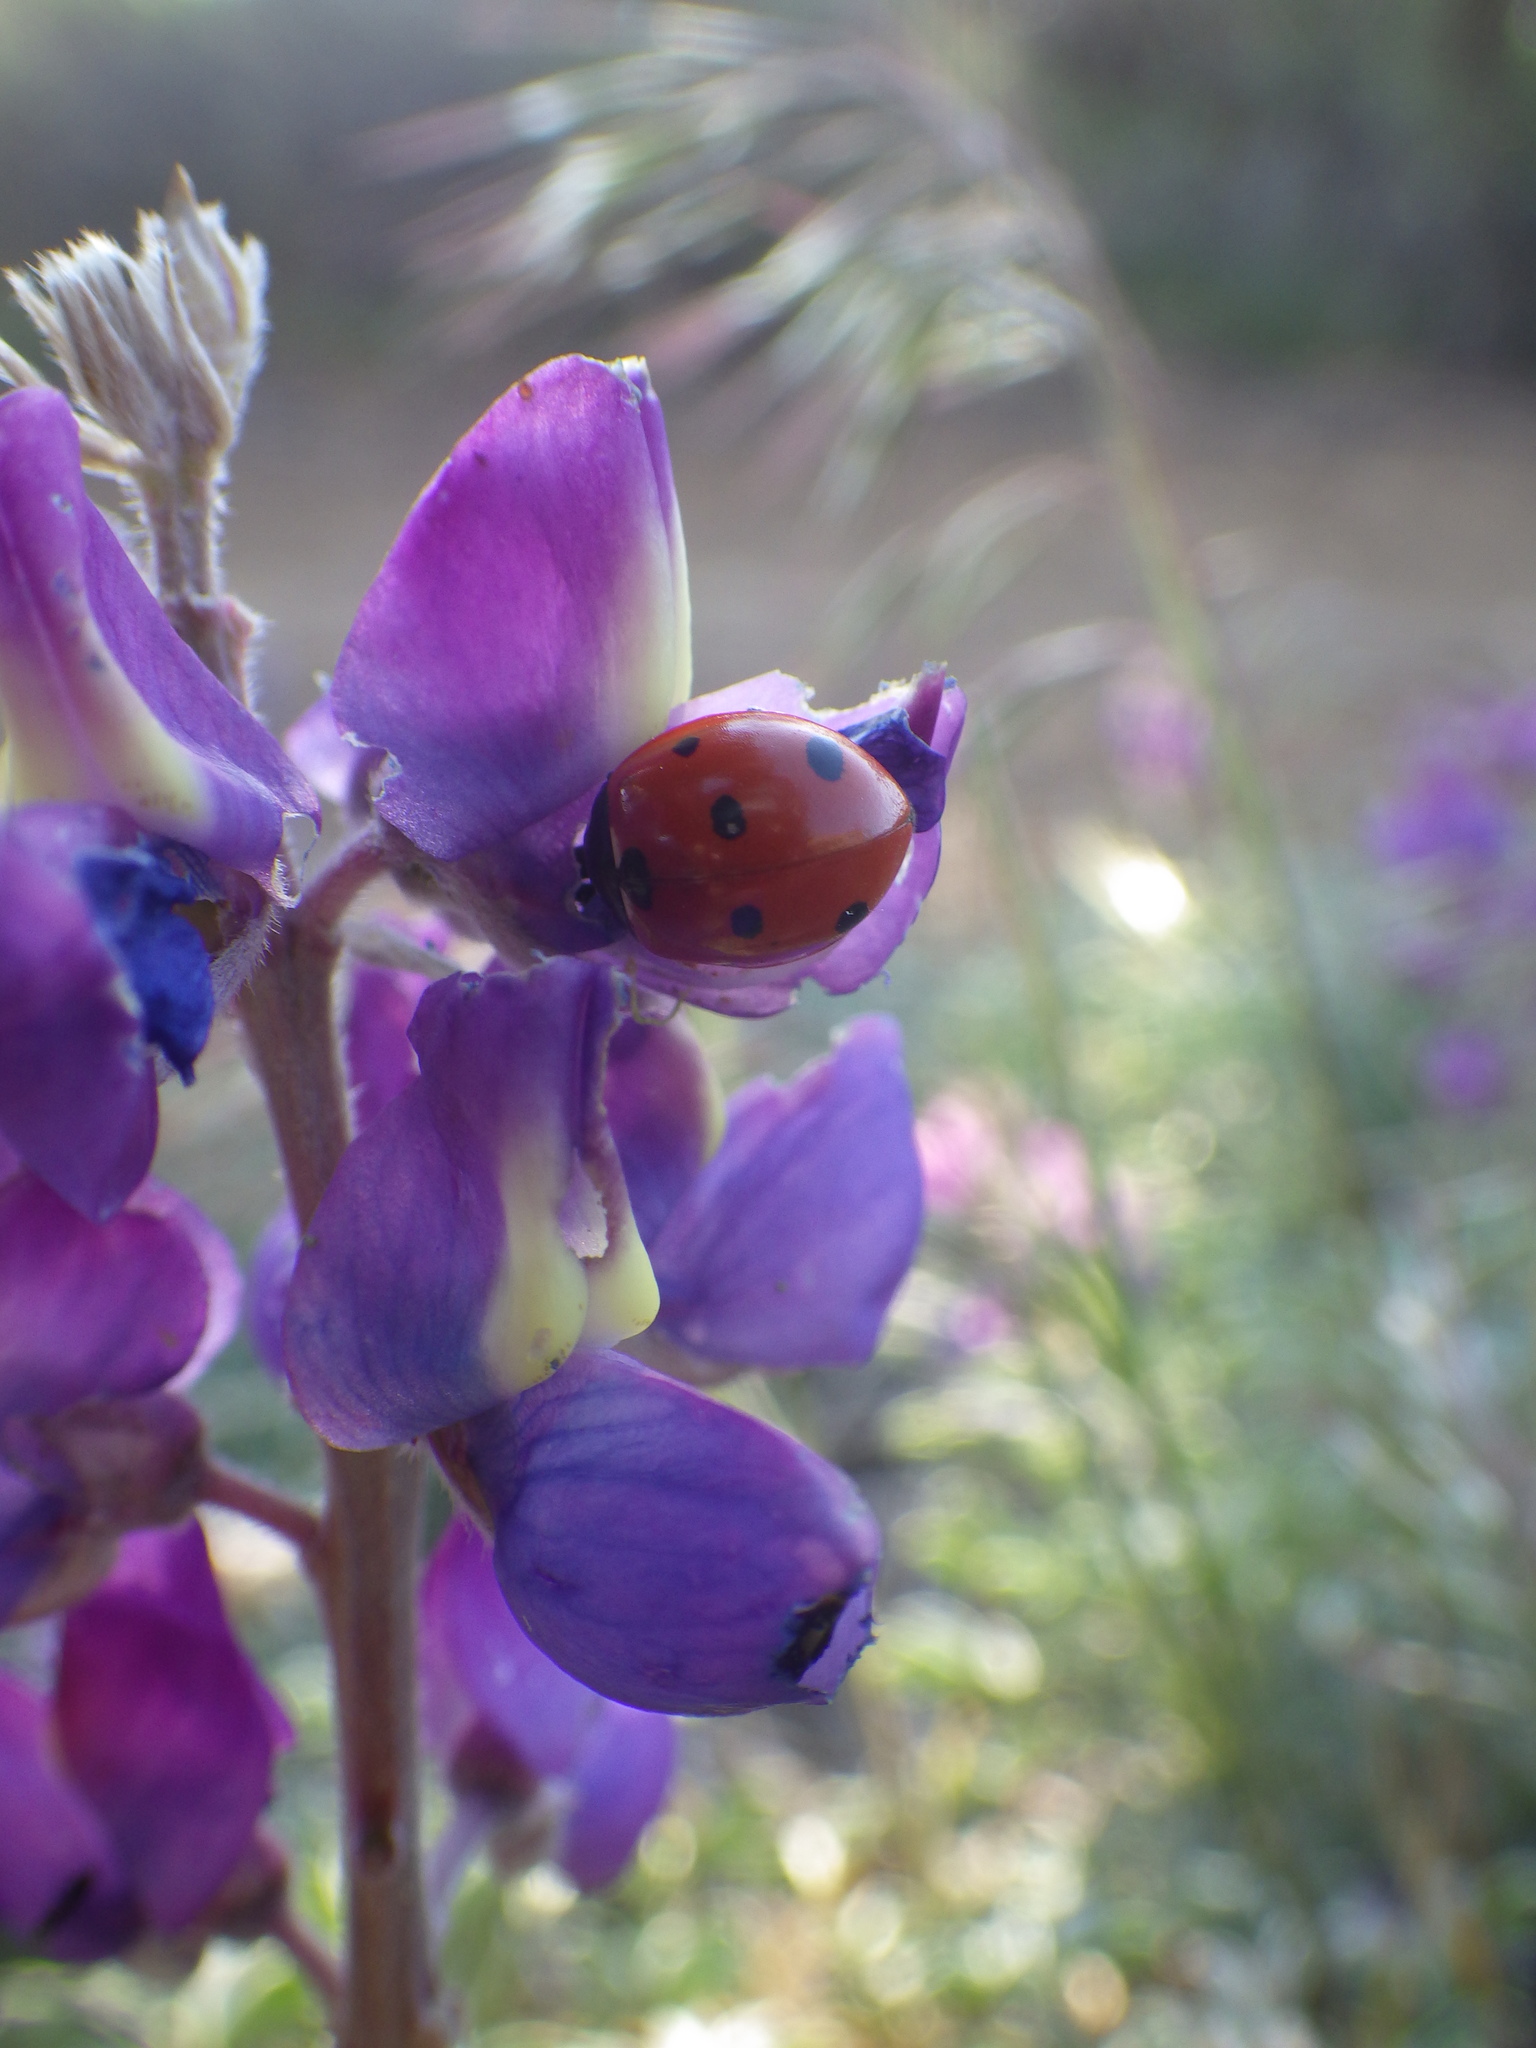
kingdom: Animalia
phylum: Arthropoda
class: Insecta
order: Coleoptera
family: Coccinellidae
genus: Coccinella
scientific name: Coccinella septempunctata
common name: Sevenspotted lady beetle
